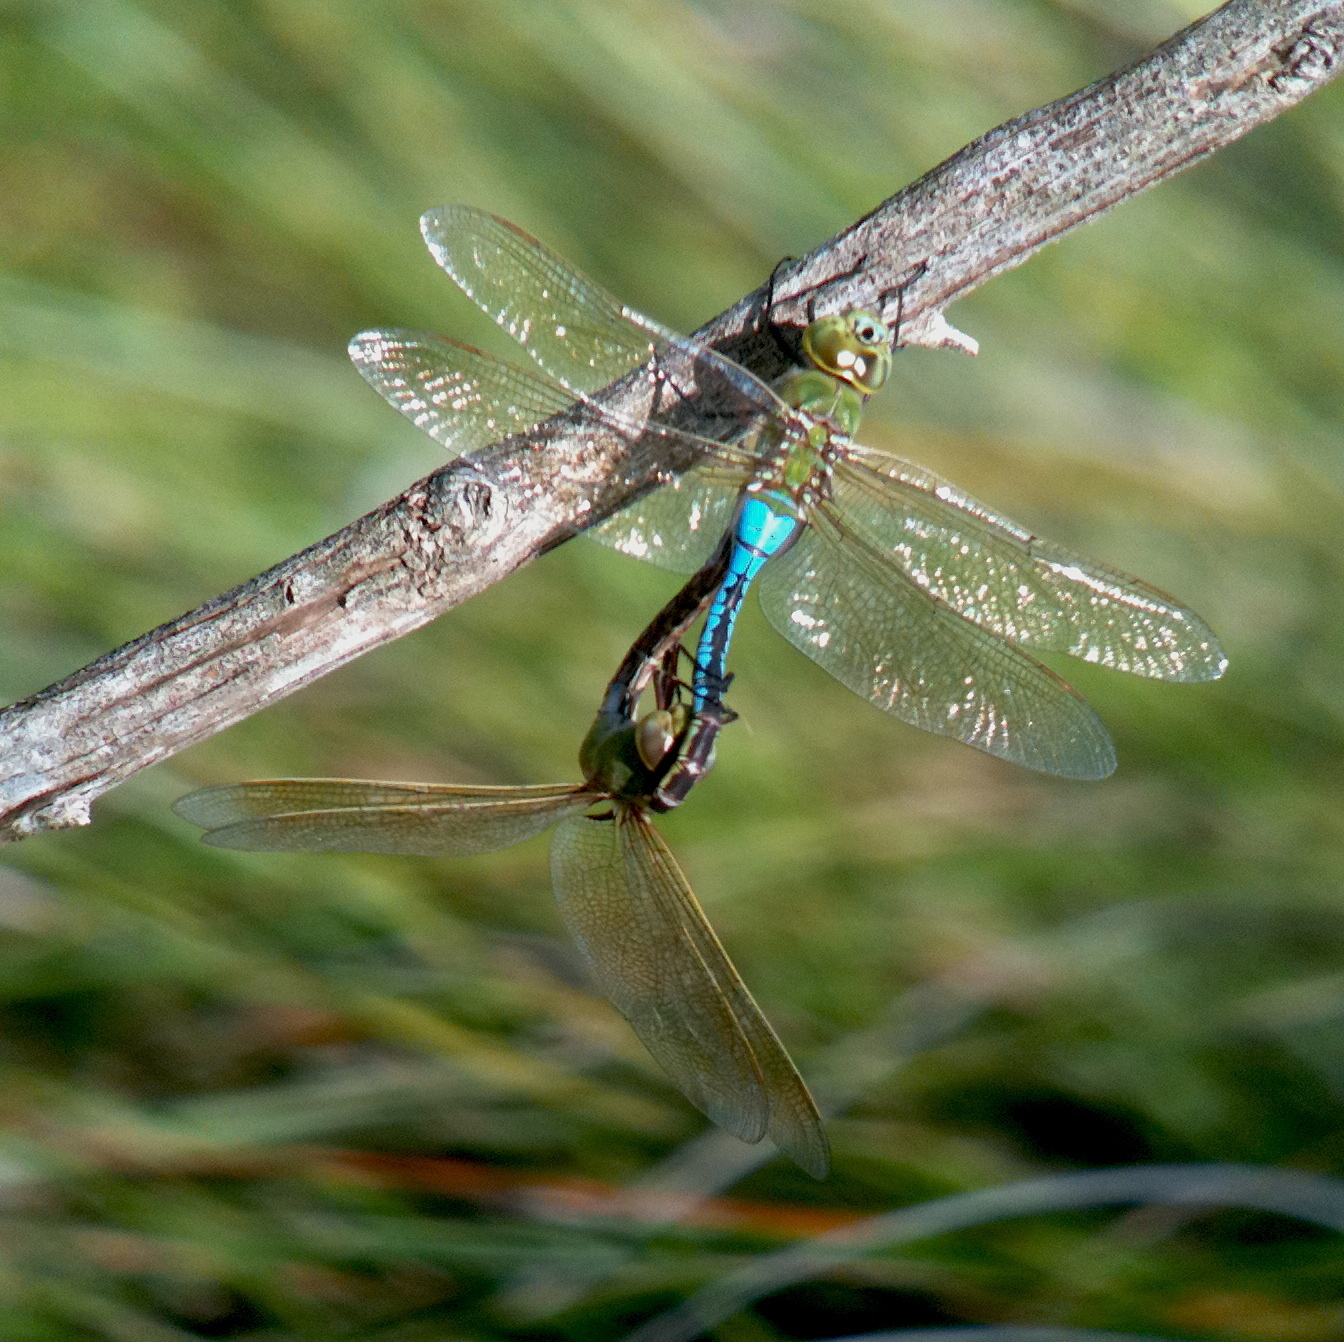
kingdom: Animalia
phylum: Arthropoda
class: Insecta
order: Odonata
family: Aeshnidae
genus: Anax
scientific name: Anax junius
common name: Common green darner
